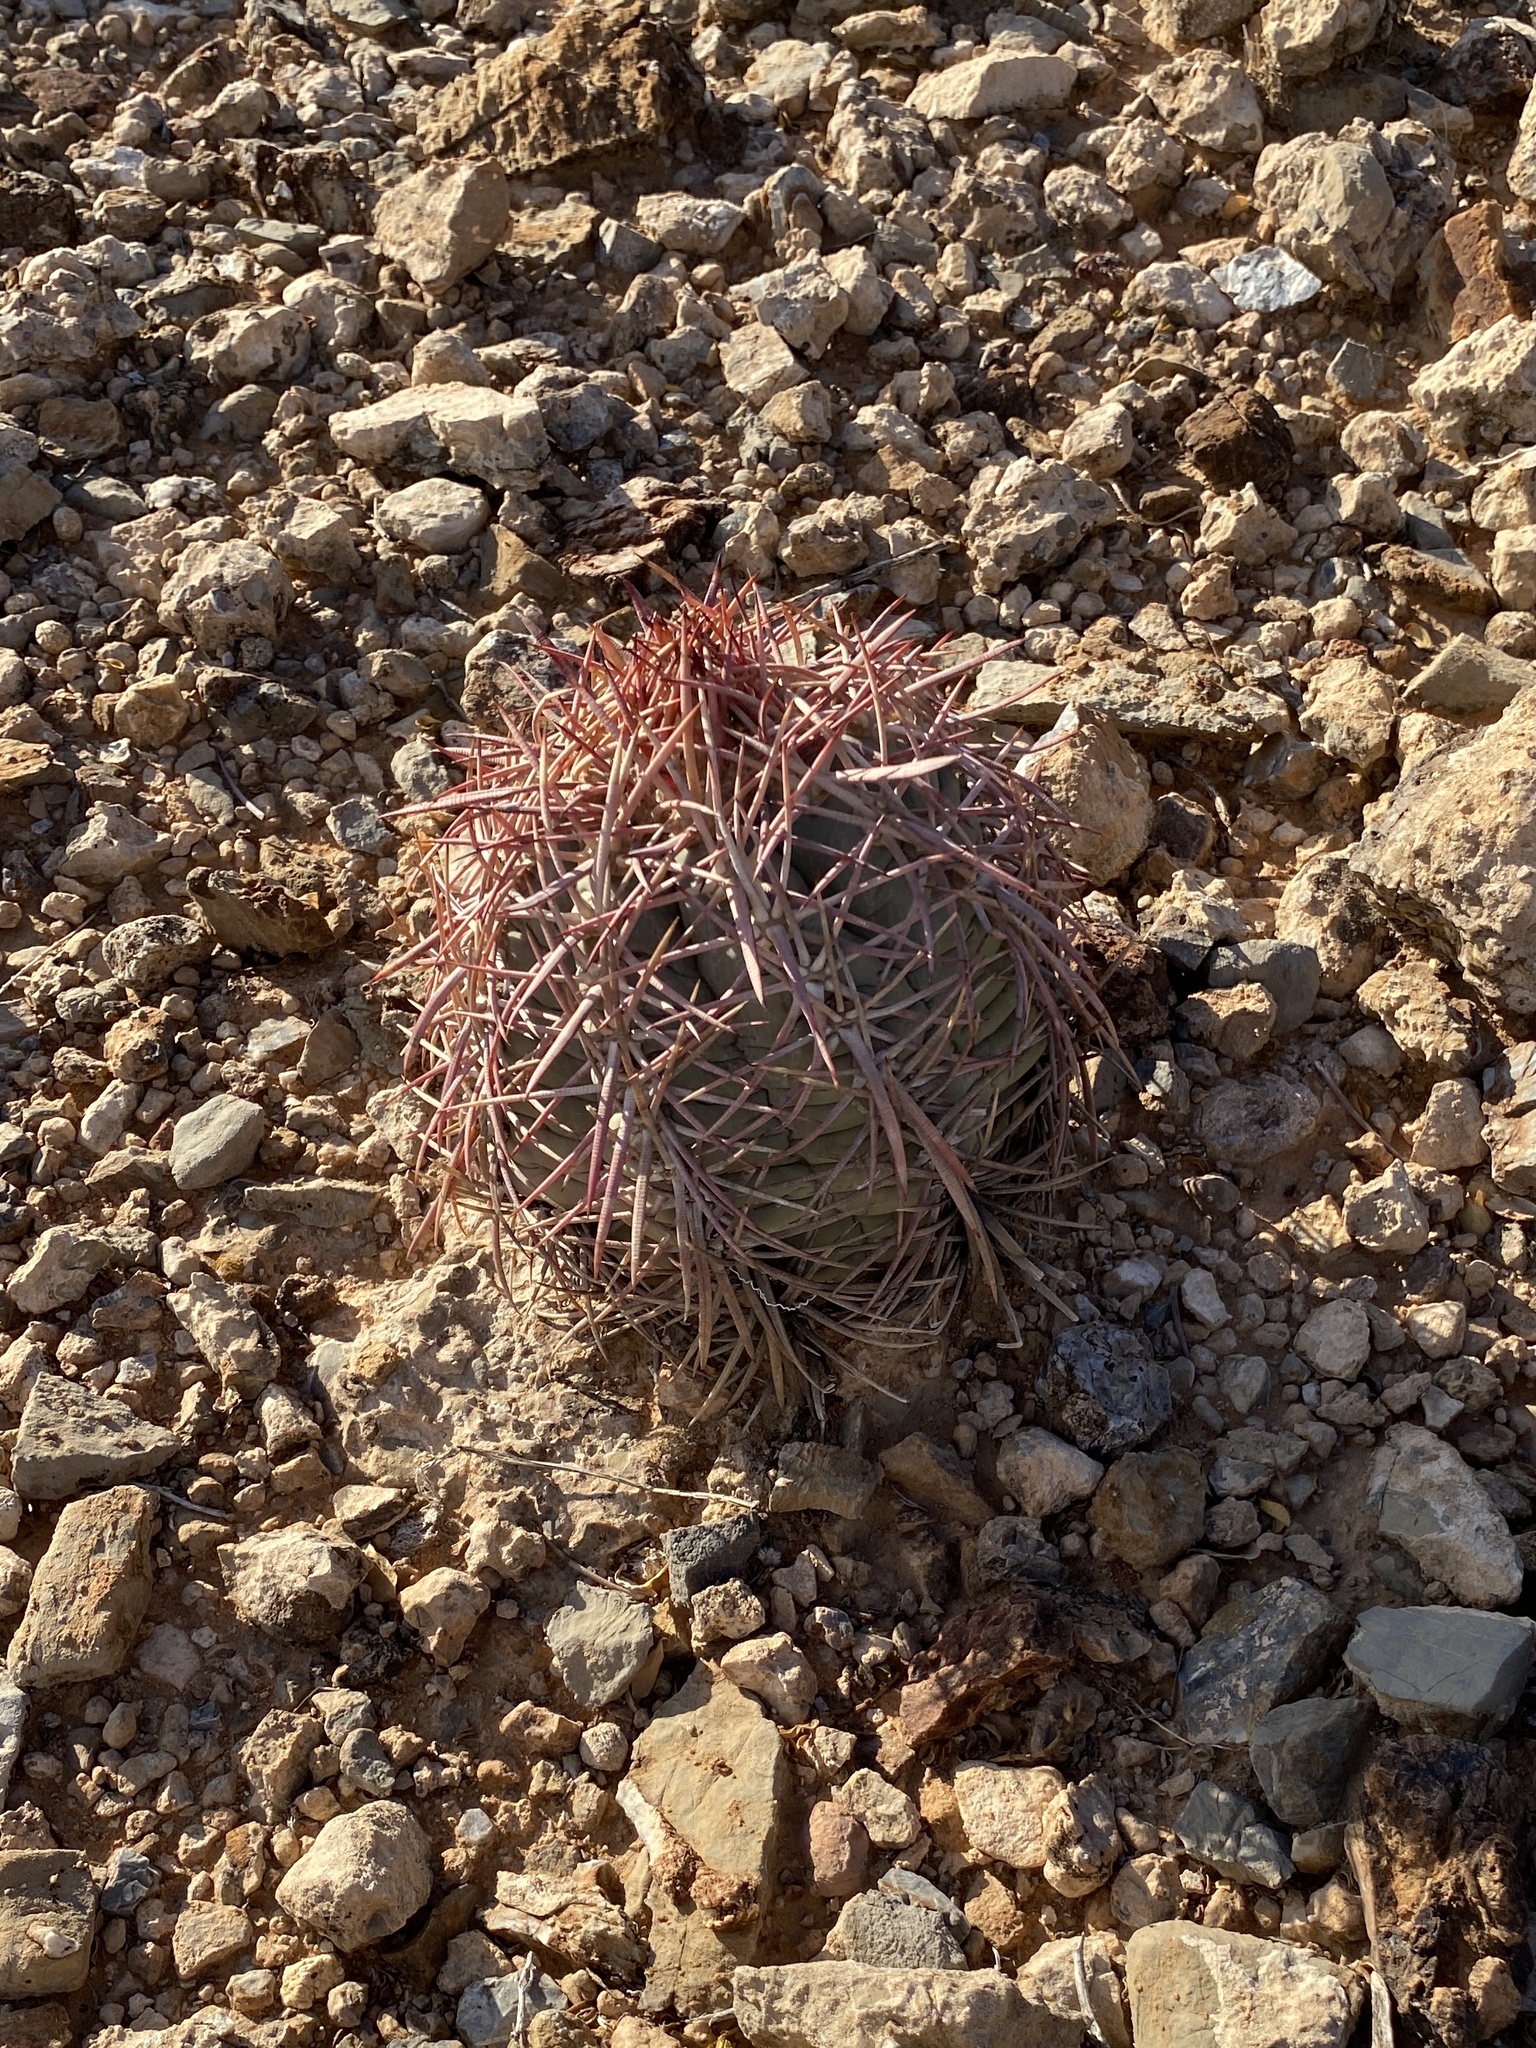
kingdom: Plantae
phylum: Tracheophyta
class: Magnoliopsida
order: Caryophyllales
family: Cactaceae
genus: Echinocactus
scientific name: Echinocactus horizonthalonius
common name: Devilshead
